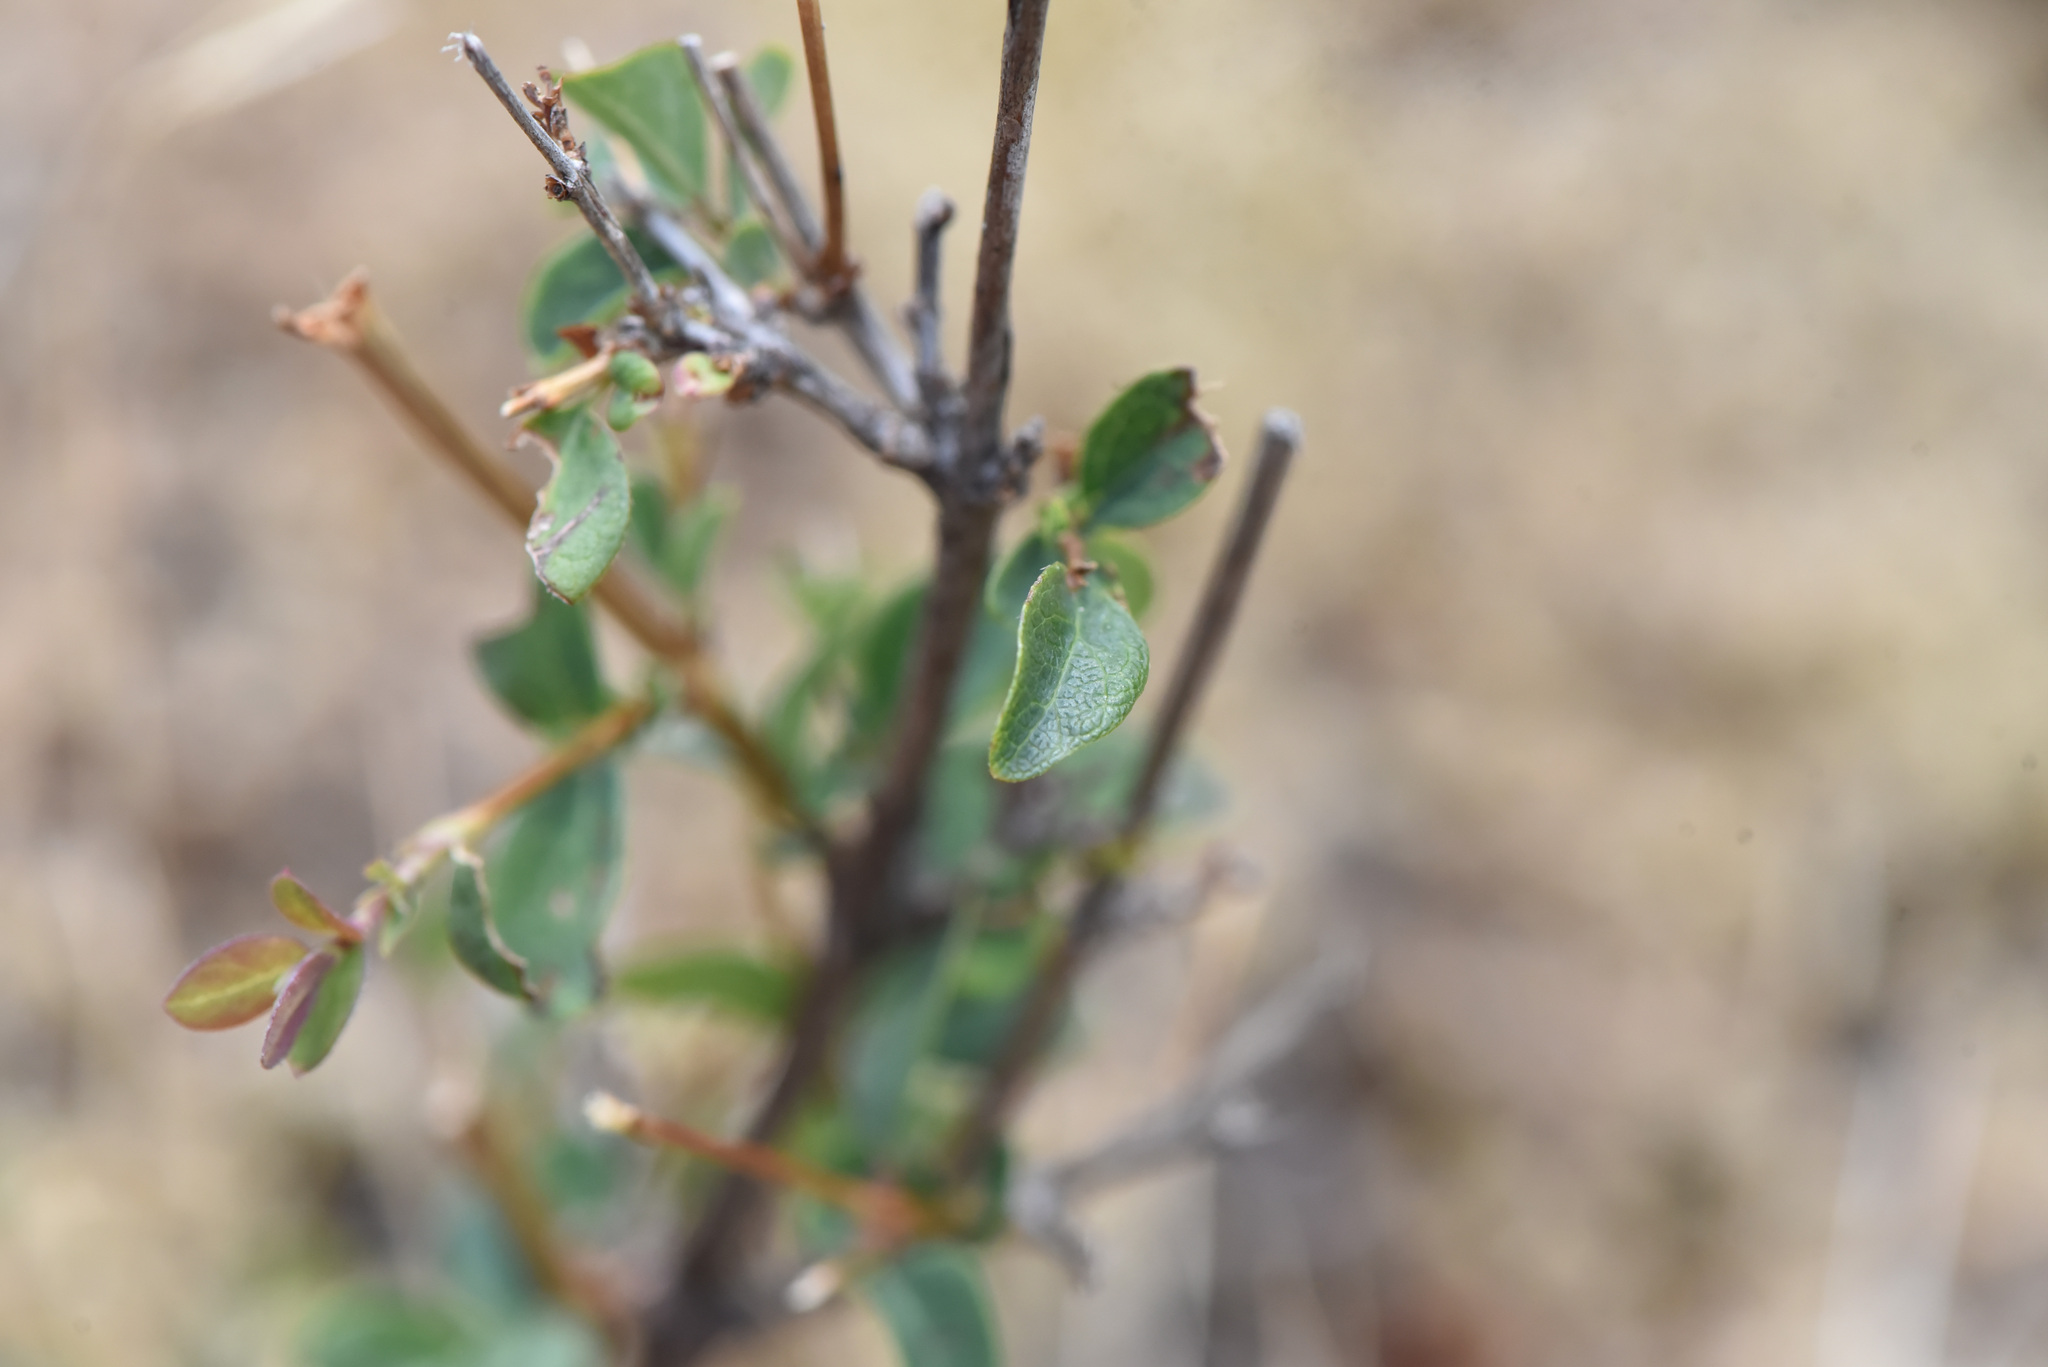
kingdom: Plantae
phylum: Tracheophyta
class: Magnoliopsida
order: Dipsacales
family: Caprifoliaceae
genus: Symphoricarpos
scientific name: Symphoricarpos mollis
